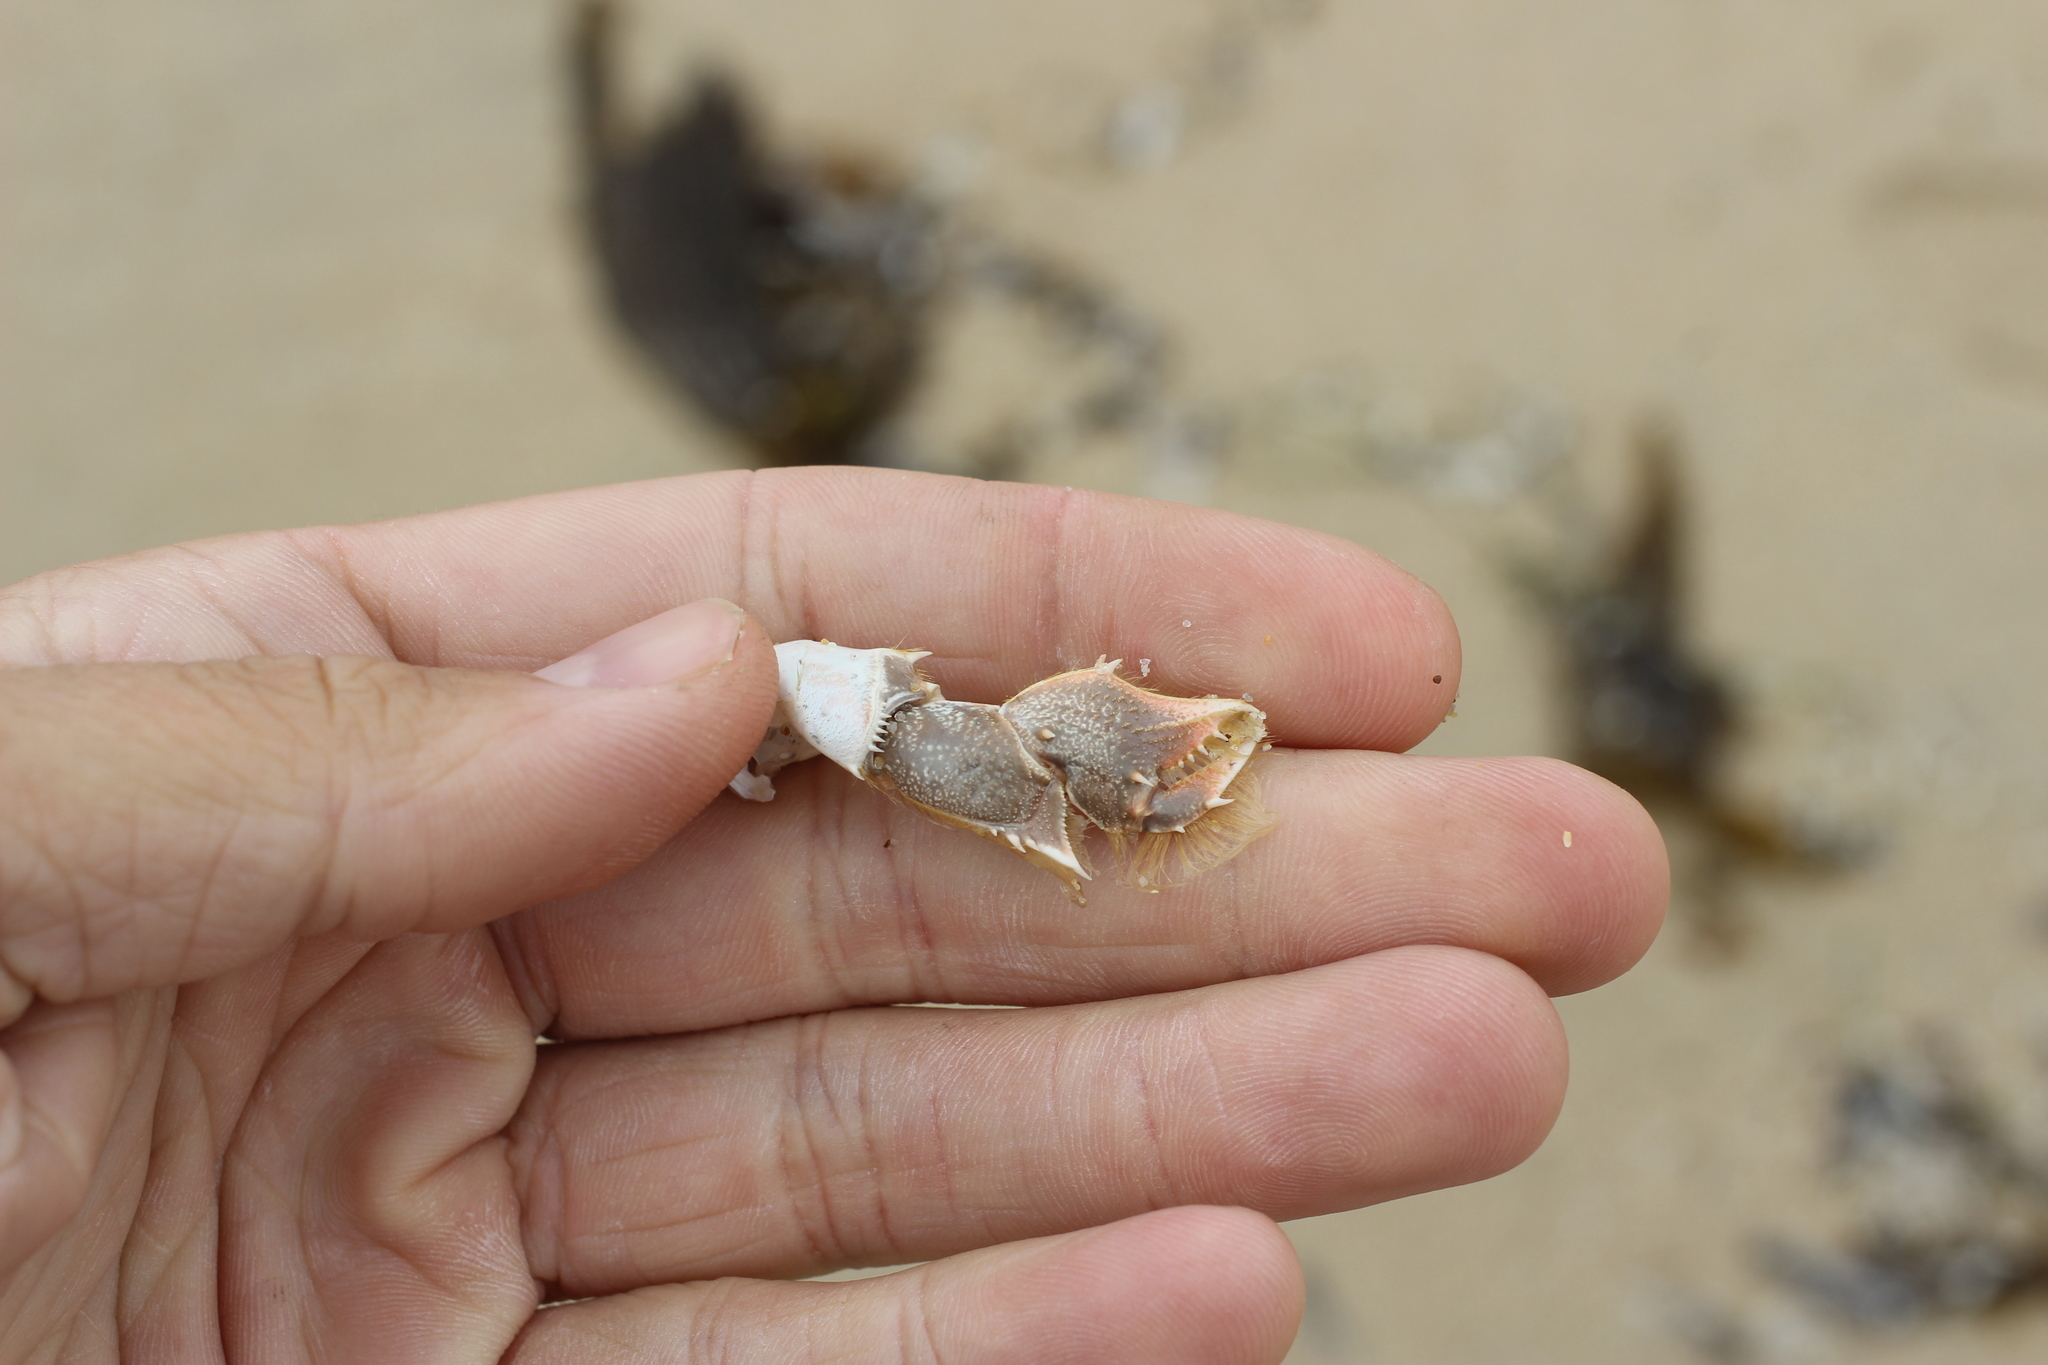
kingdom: Animalia
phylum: Arthropoda
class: Malacostraca
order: Decapoda
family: Blepharipodidae
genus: Blepharipoda
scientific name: Blepharipoda occidentalis
